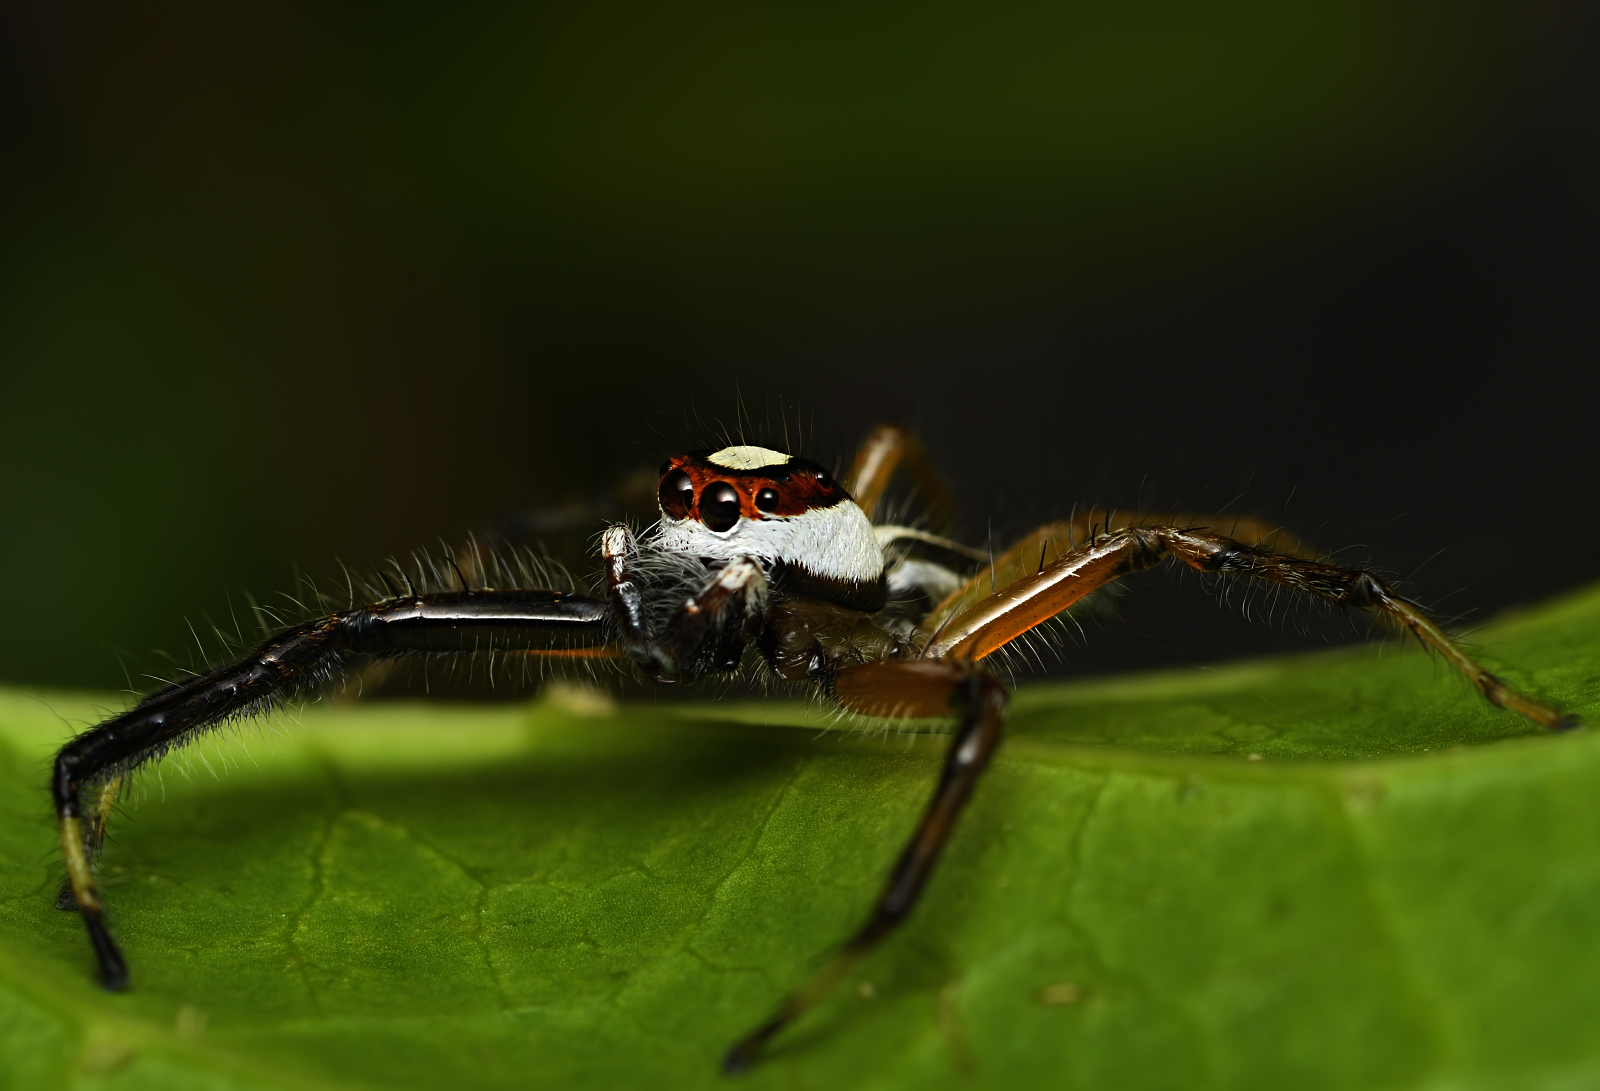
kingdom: Animalia
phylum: Arthropoda
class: Arachnida
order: Araneae
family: Salticidae
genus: Telamonia
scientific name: Telamonia dimidiata
